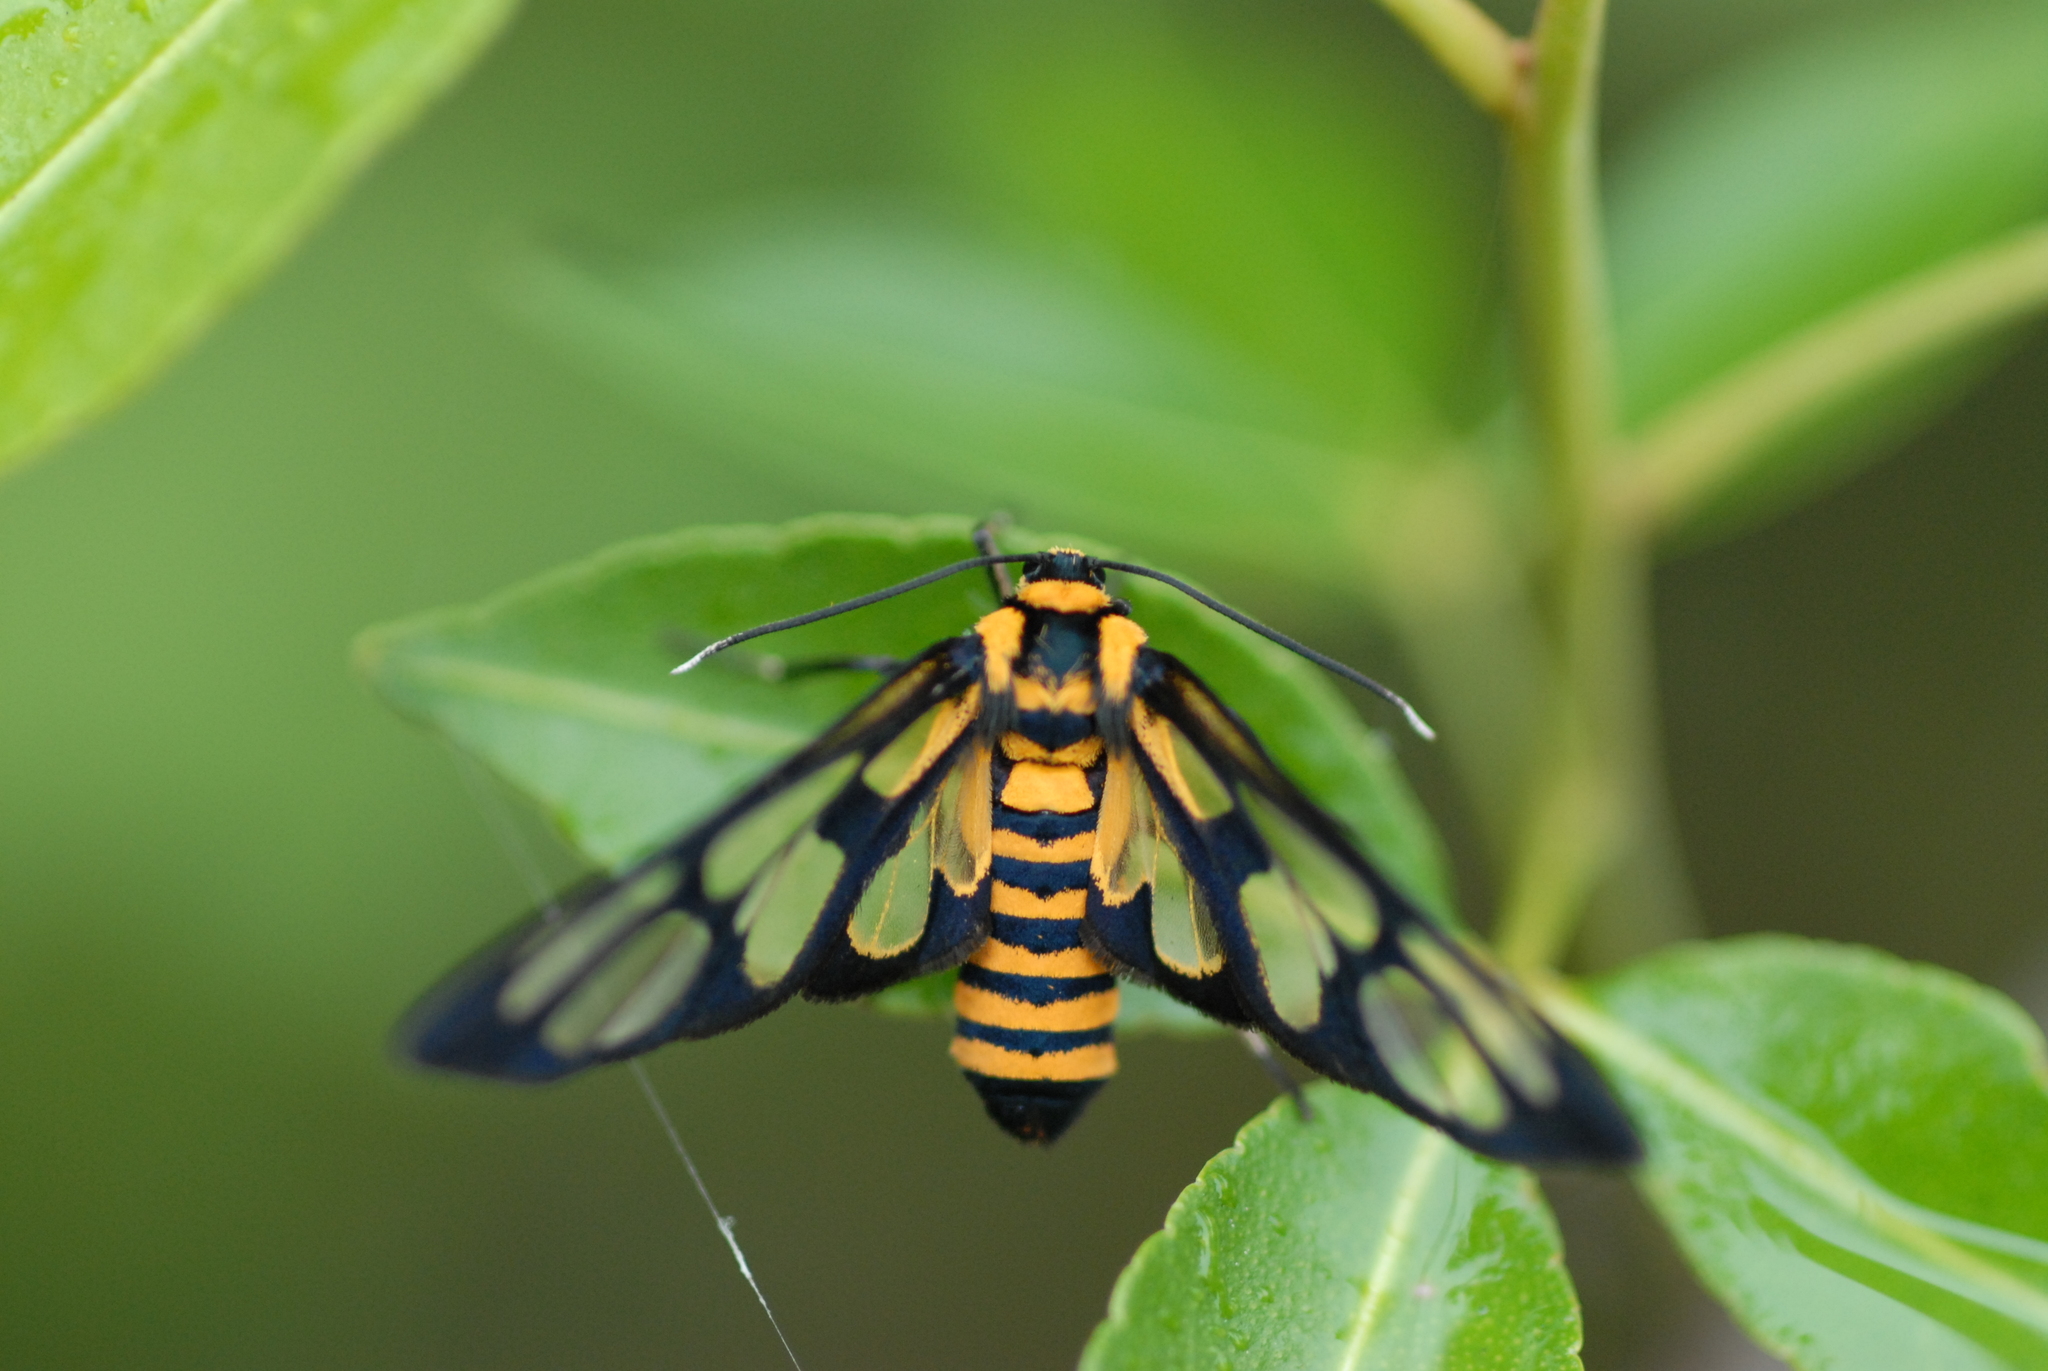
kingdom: Animalia
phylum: Arthropoda
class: Insecta
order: Lepidoptera
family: Erebidae
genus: Amata
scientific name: Amata persimilis
